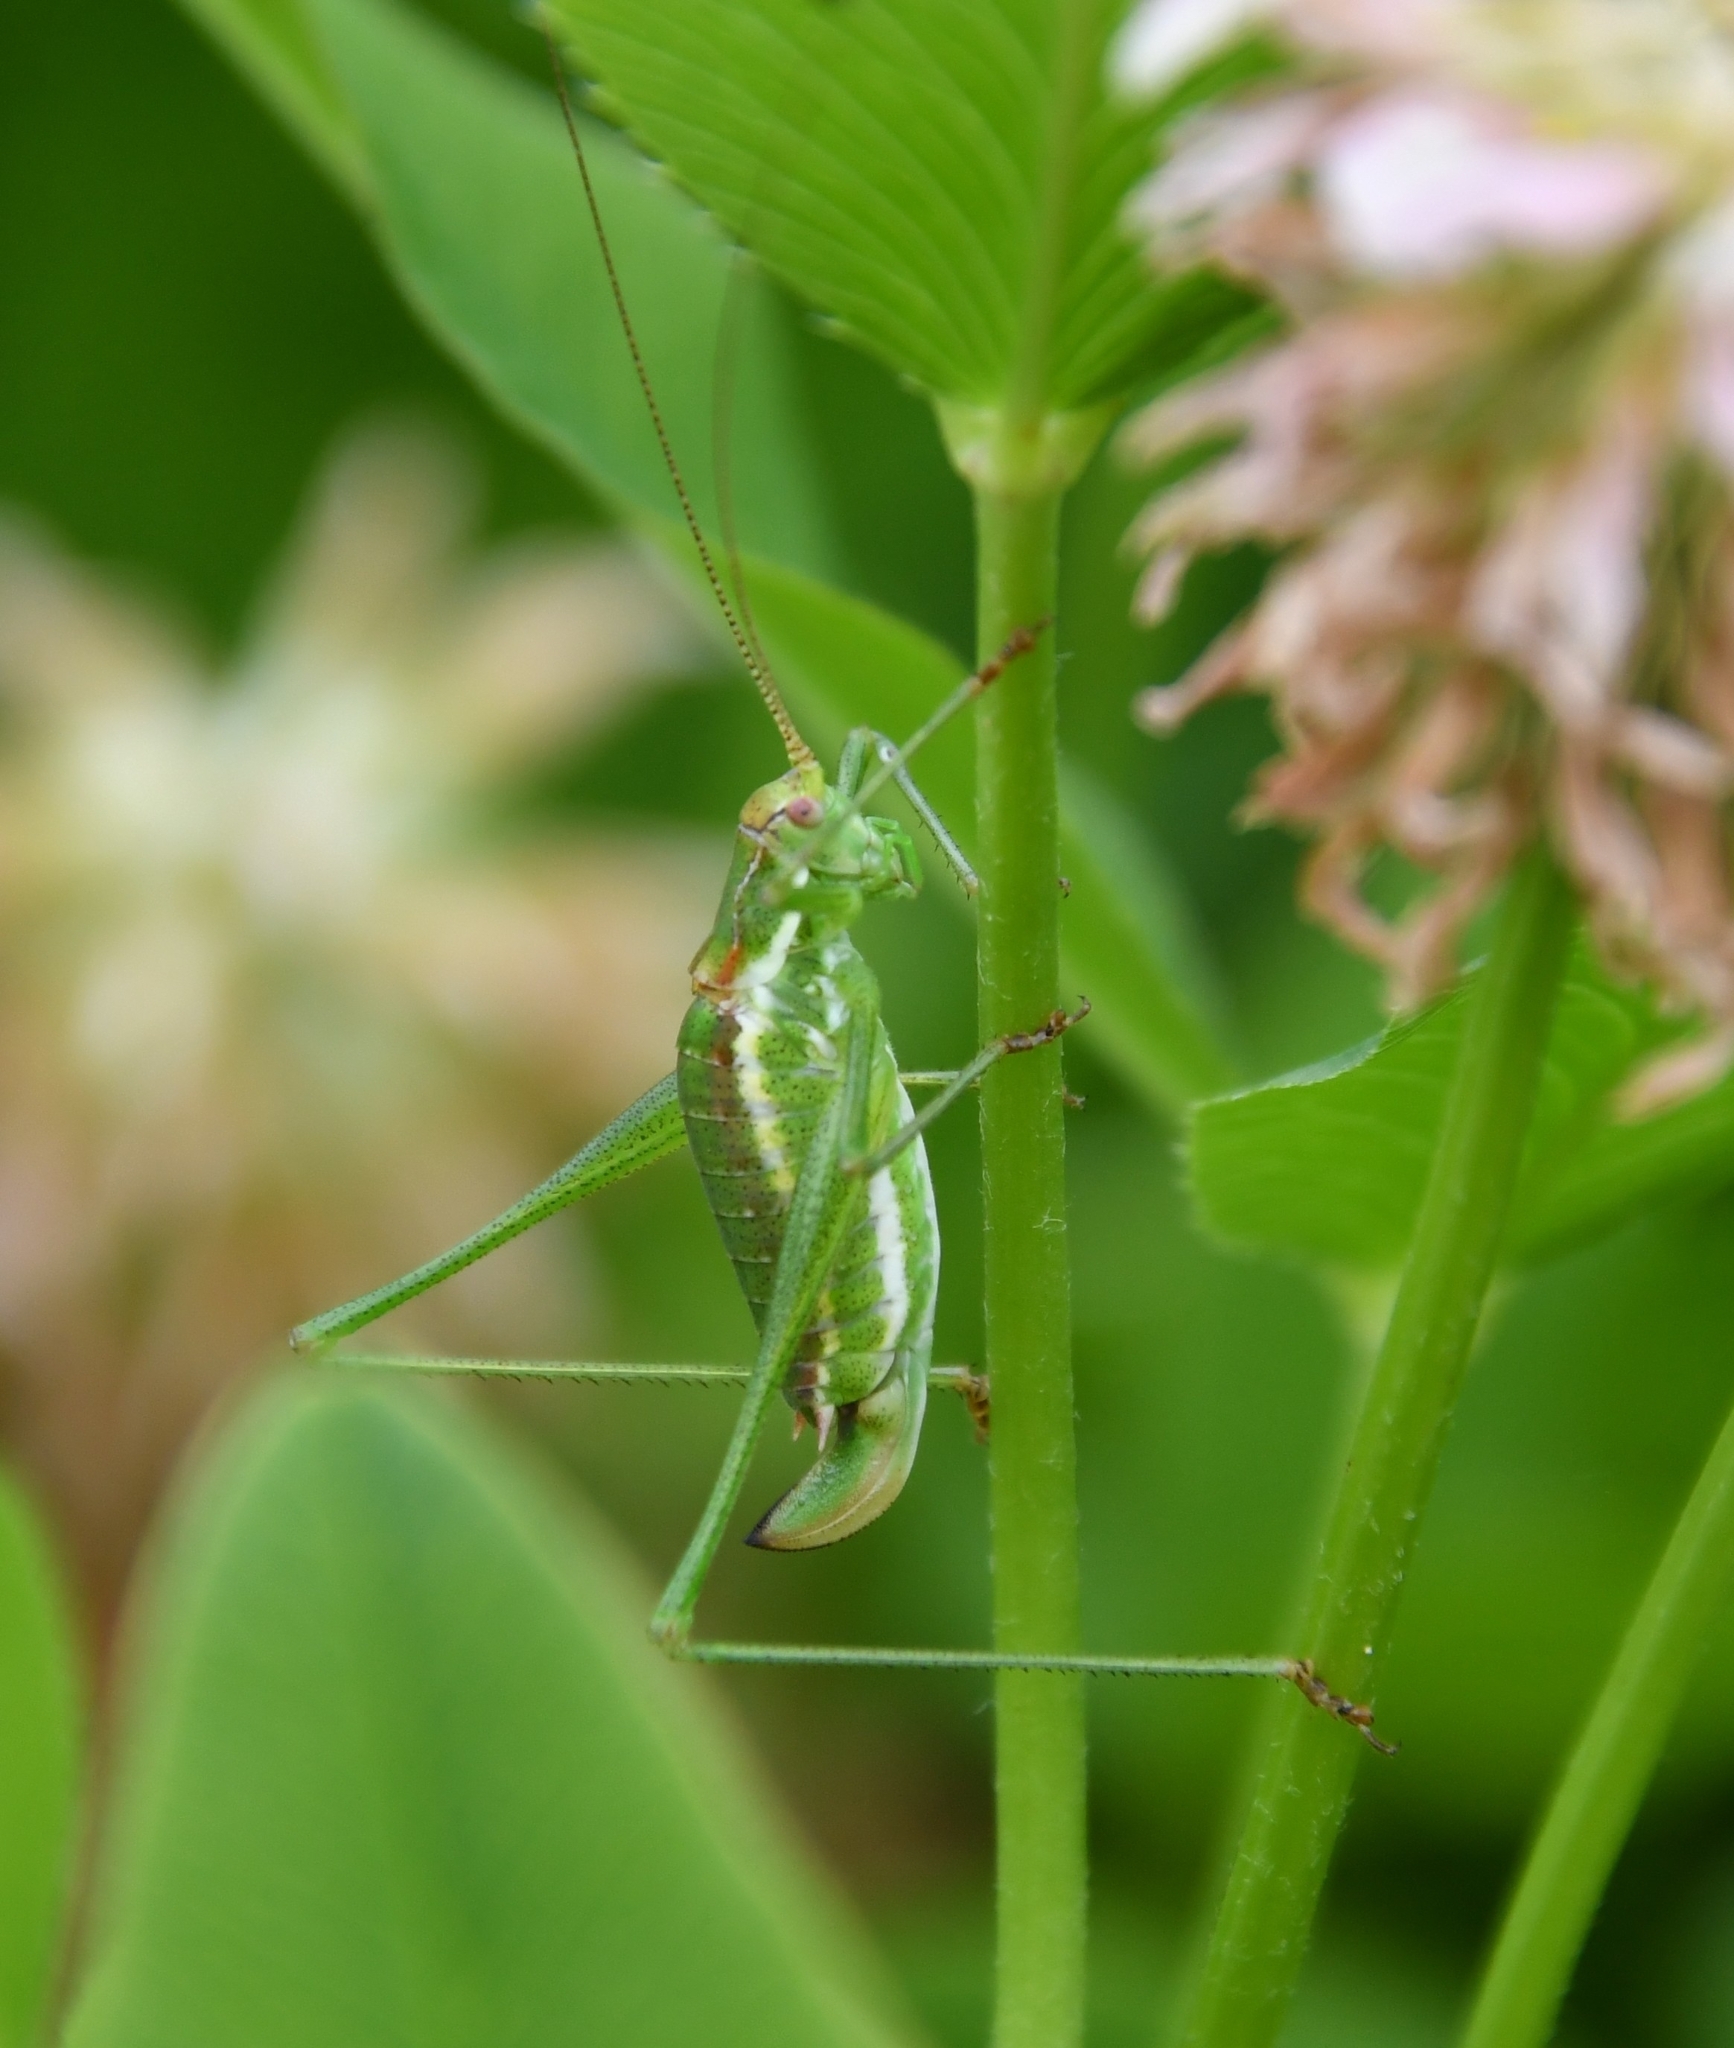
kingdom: Animalia
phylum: Arthropoda
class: Insecta
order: Orthoptera
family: Tettigoniidae
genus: Leptophyes
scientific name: Leptophyes albovittata
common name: Striped bush-cricket
